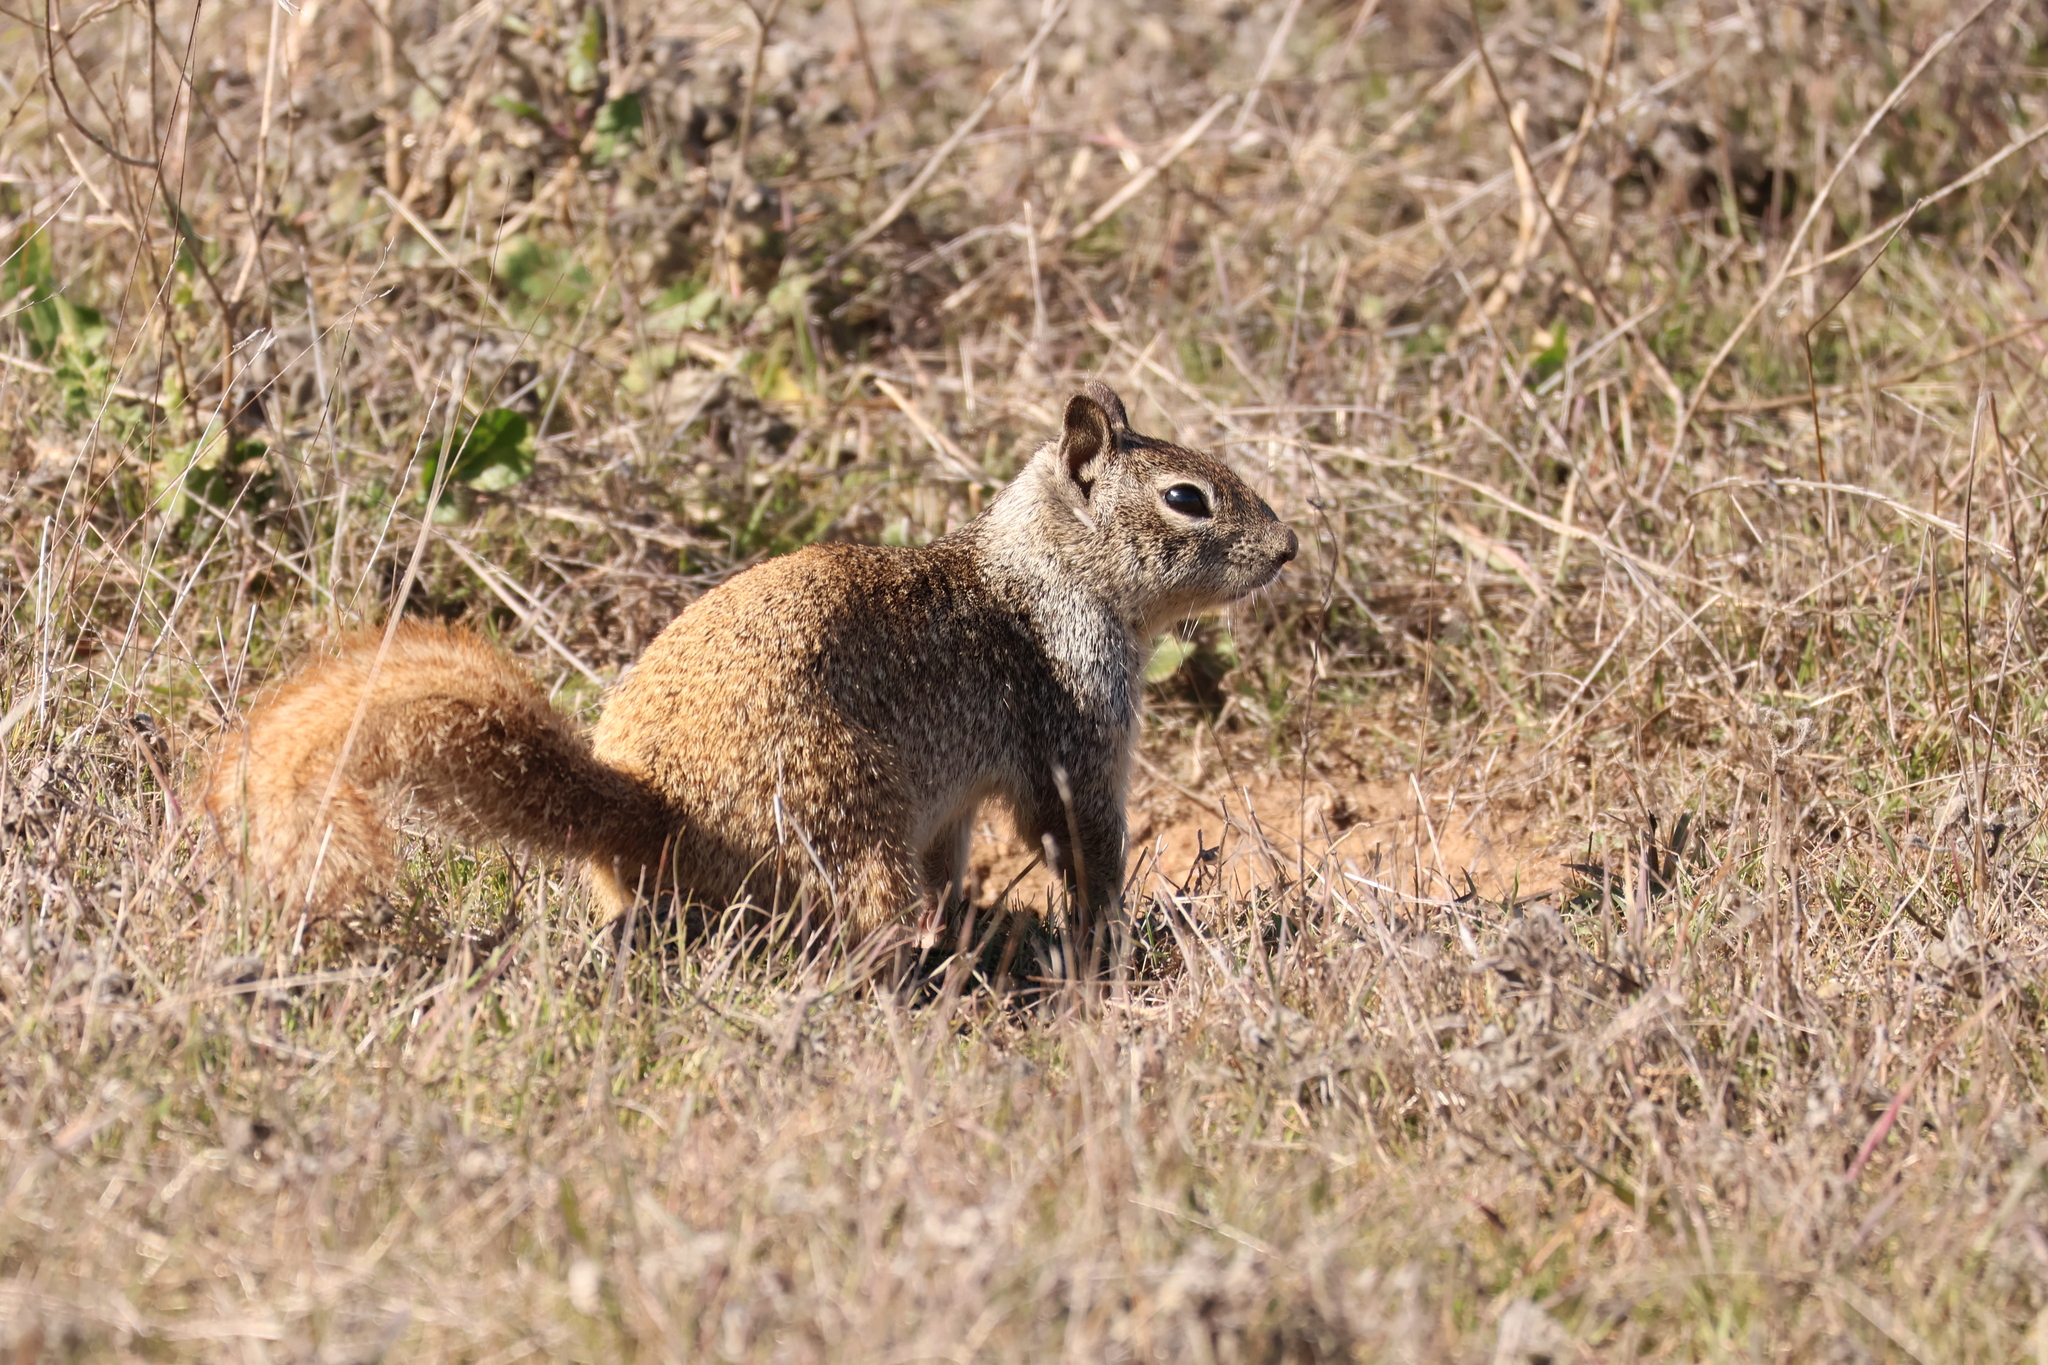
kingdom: Animalia
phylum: Chordata
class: Mammalia
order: Rodentia
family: Sciuridae
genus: Otospermophilus
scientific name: Otospermophilus beecheyi
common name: California ground squirrel
